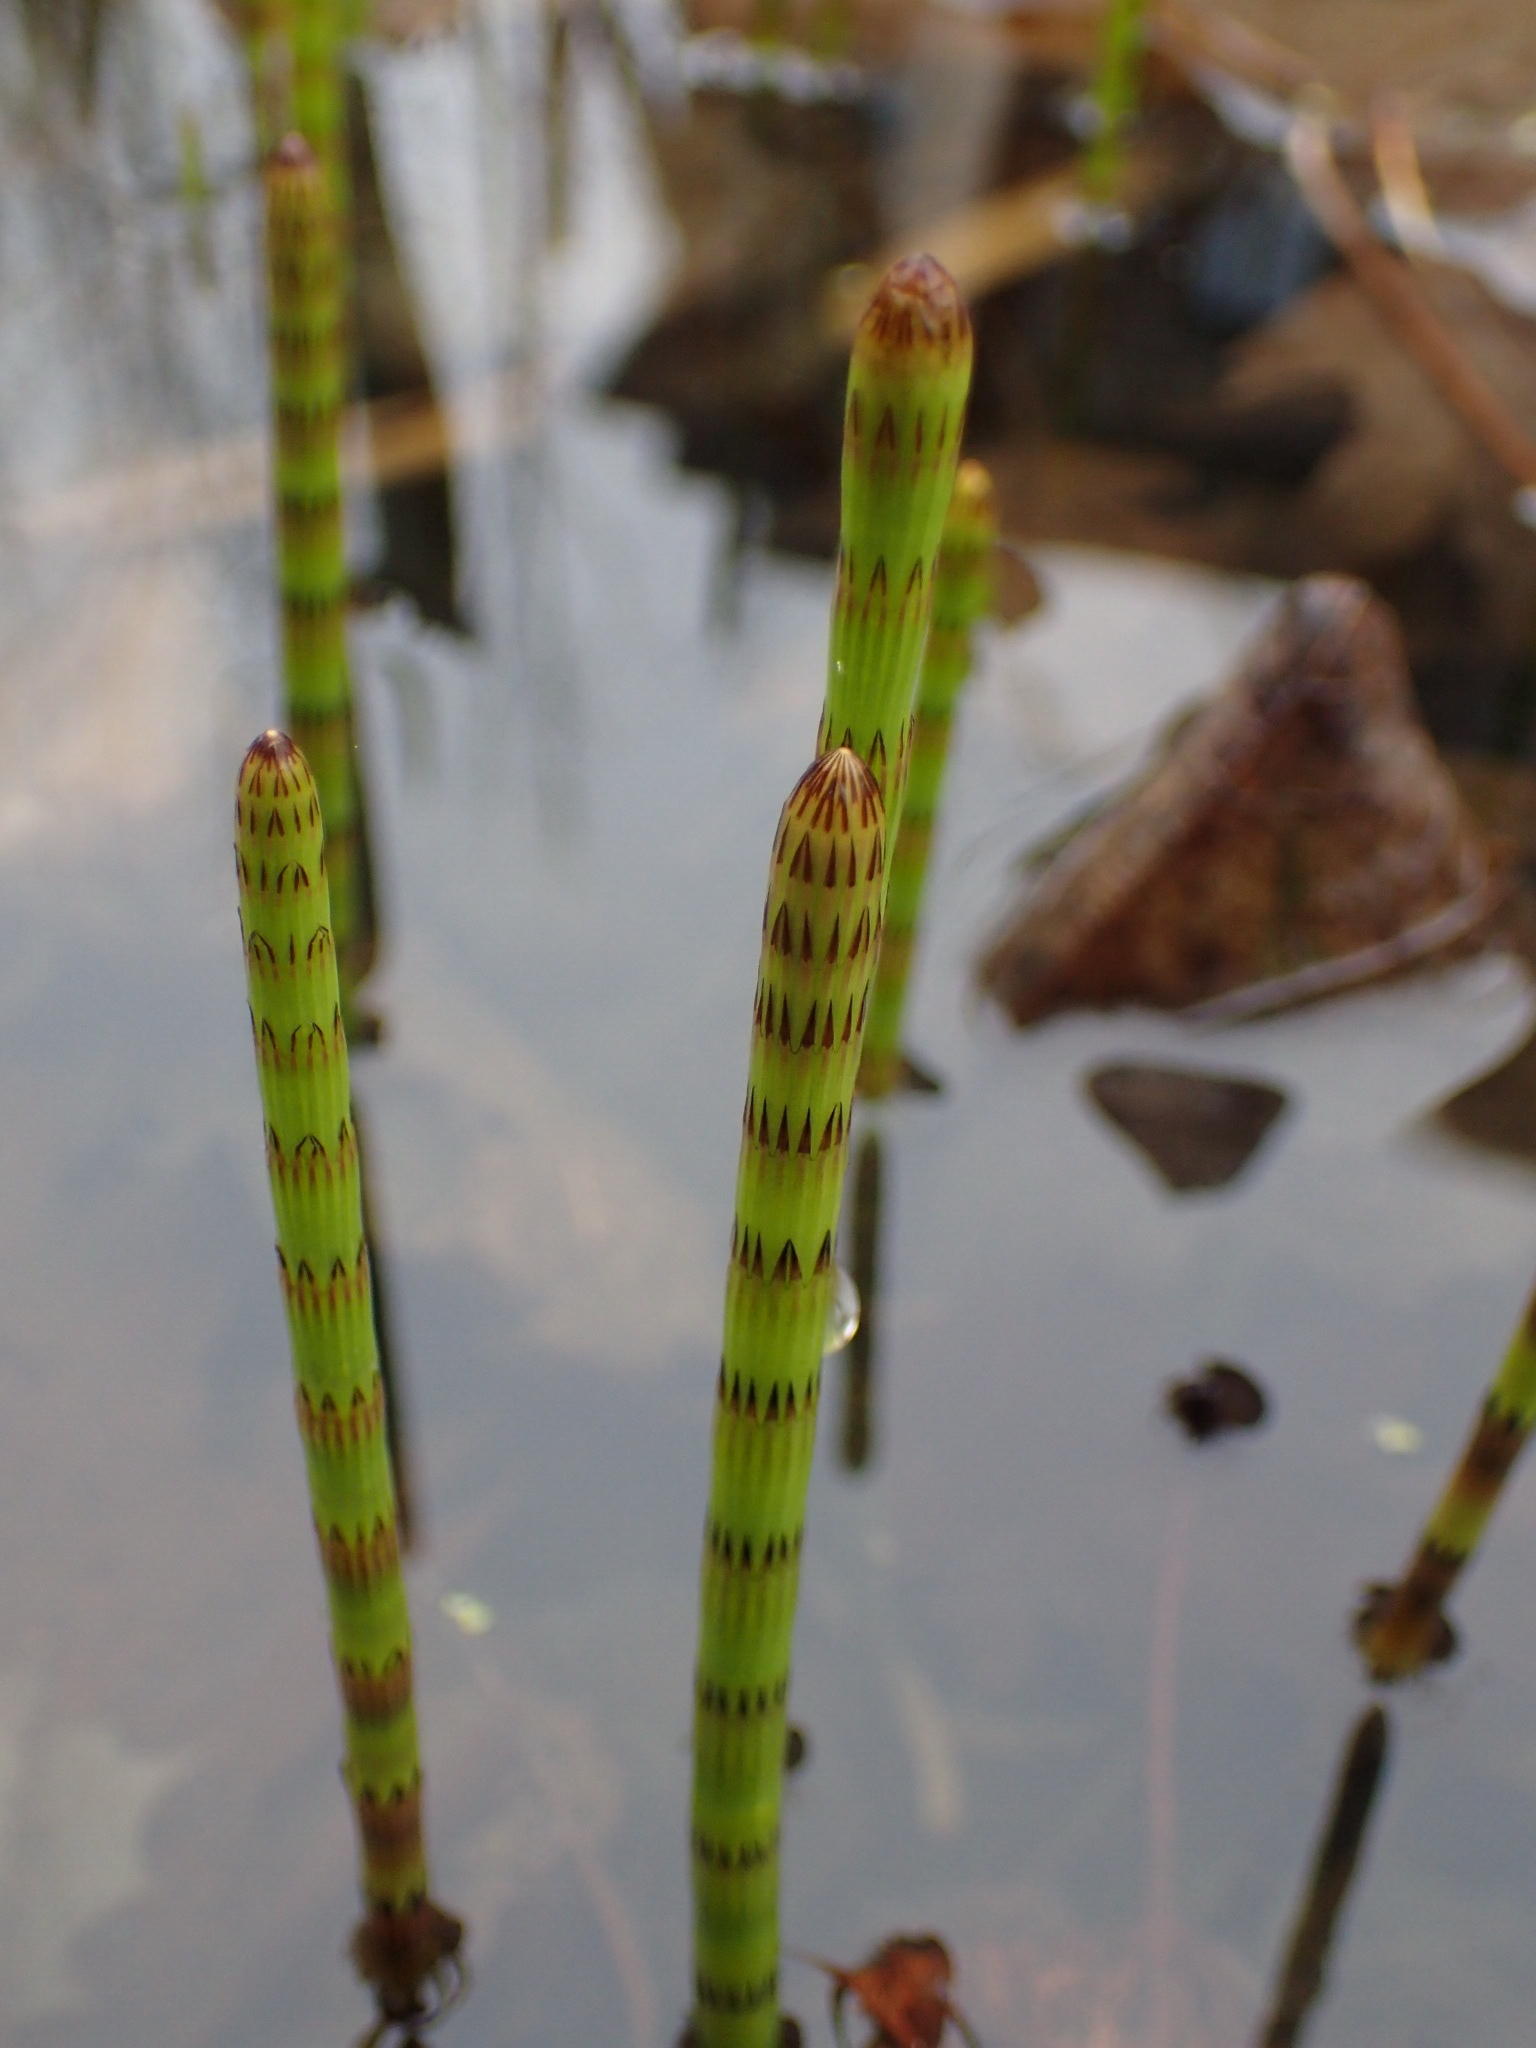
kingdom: Plantae
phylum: Tracheophyta
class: Polypodiopsida
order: Equisetales
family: Equisetaceae
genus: Equisetum
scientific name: Equisetum fluviatile
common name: Water horsetail
